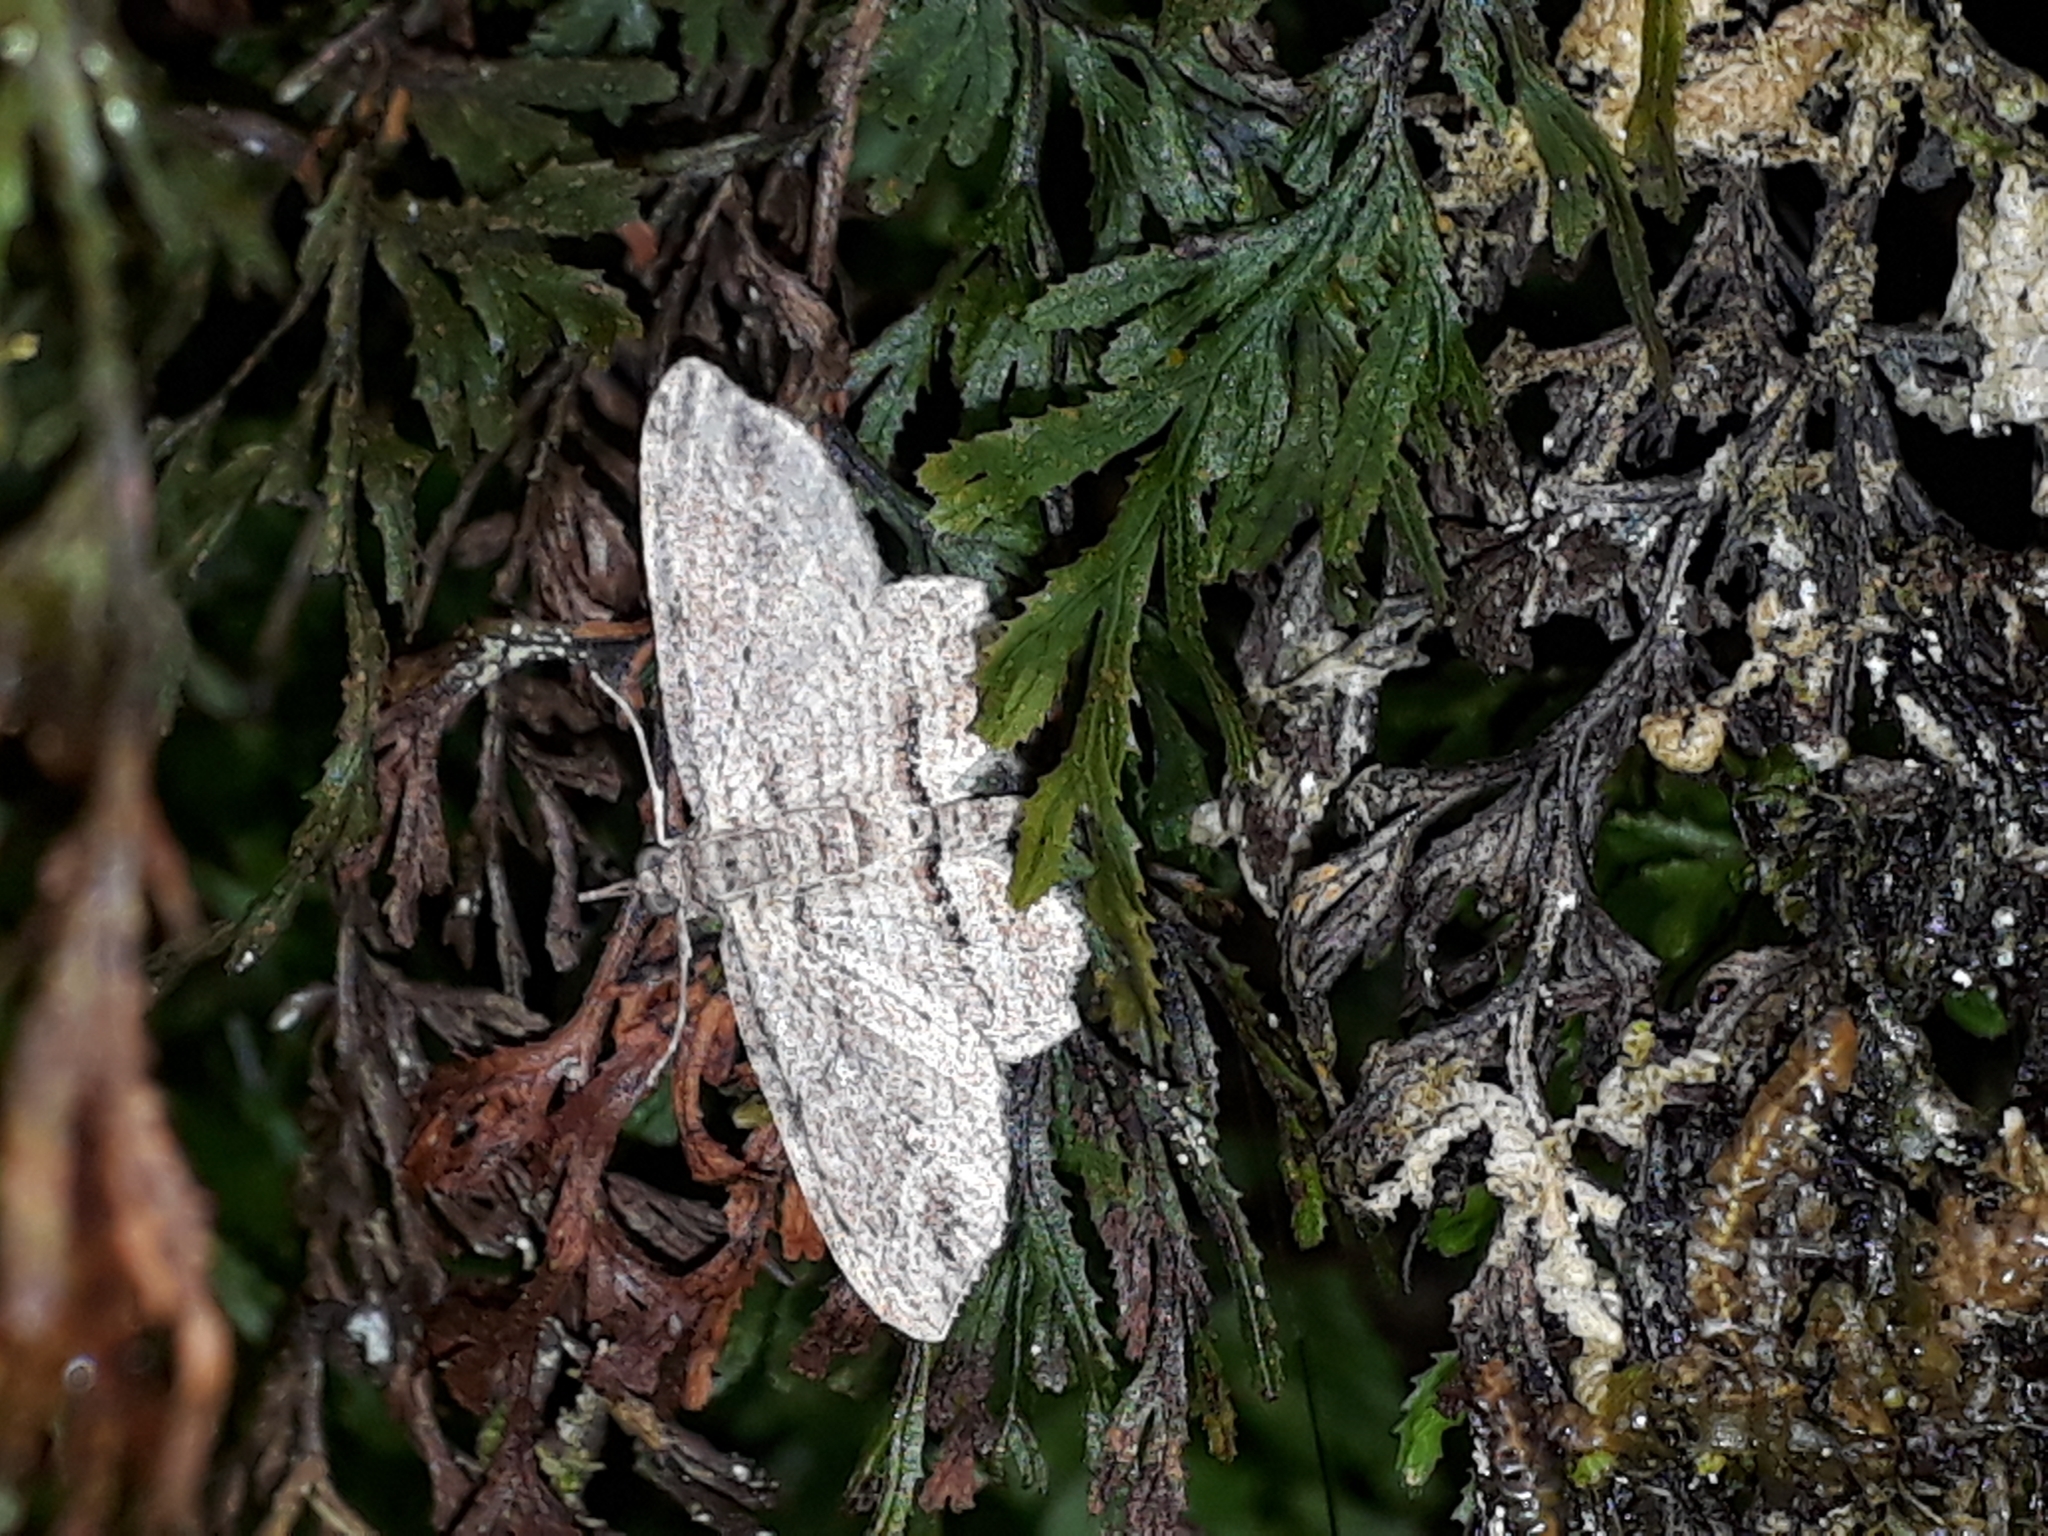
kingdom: Animalia
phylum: Arthropoda
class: Insecta
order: Lepidoptera
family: Geometridae
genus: Chloroclystis
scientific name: Chloroclystis filata
